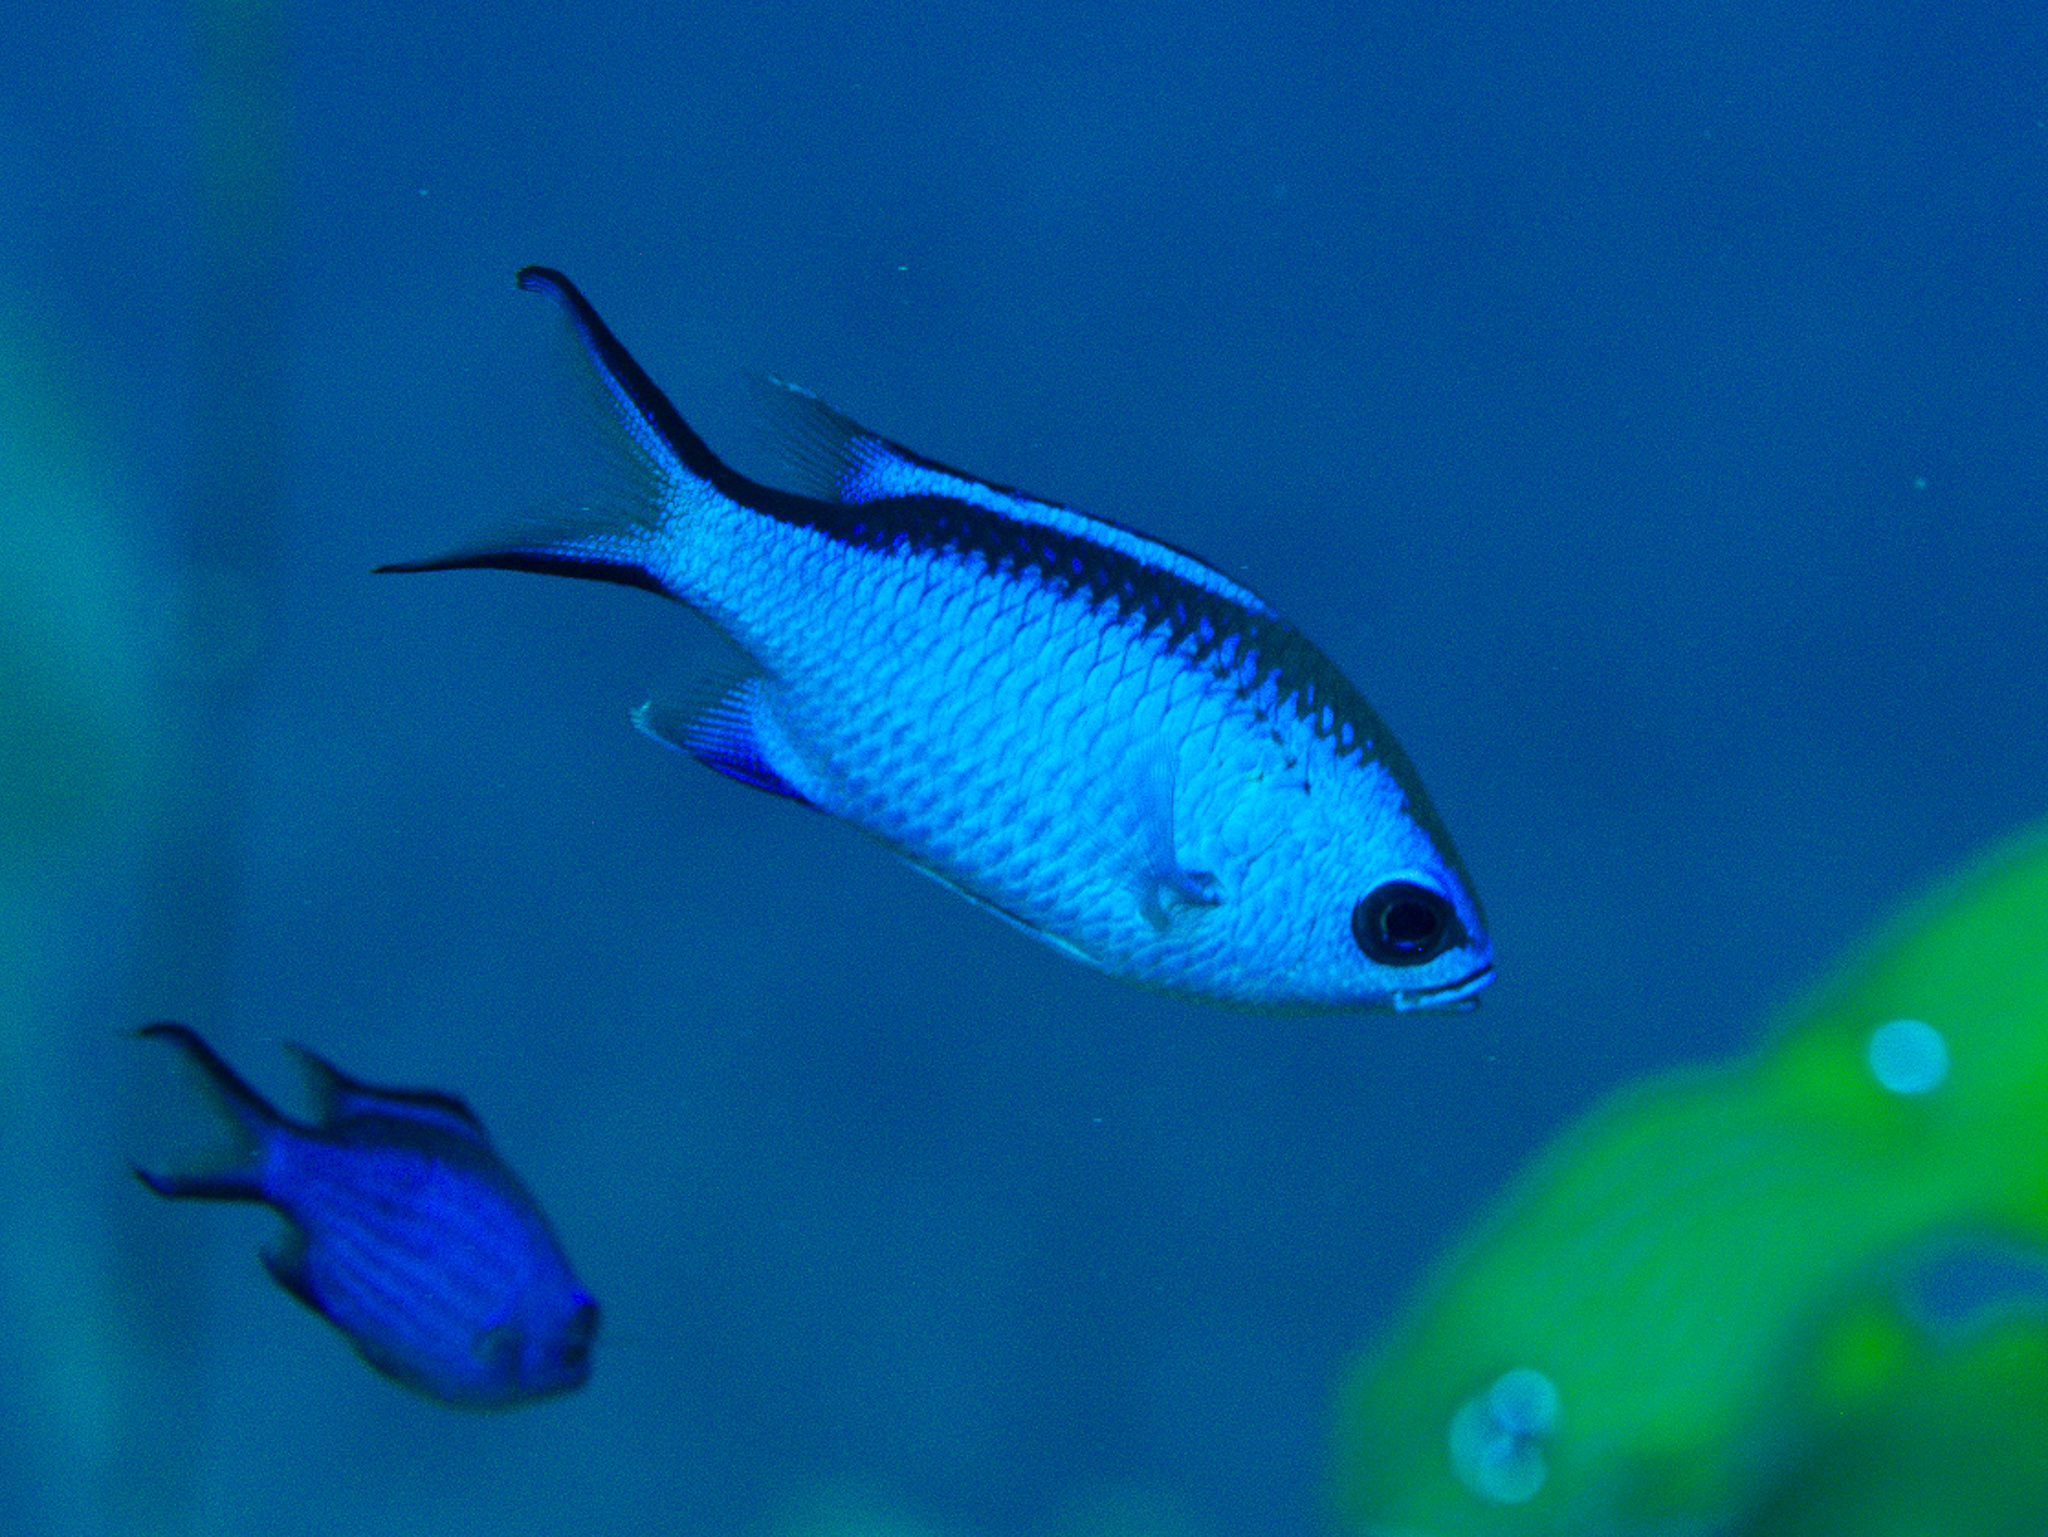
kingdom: Animalia
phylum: Chordata
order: Perciformes
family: Pomacentridae
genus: Chromis
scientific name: Chromis cyanea
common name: Blue chromis
